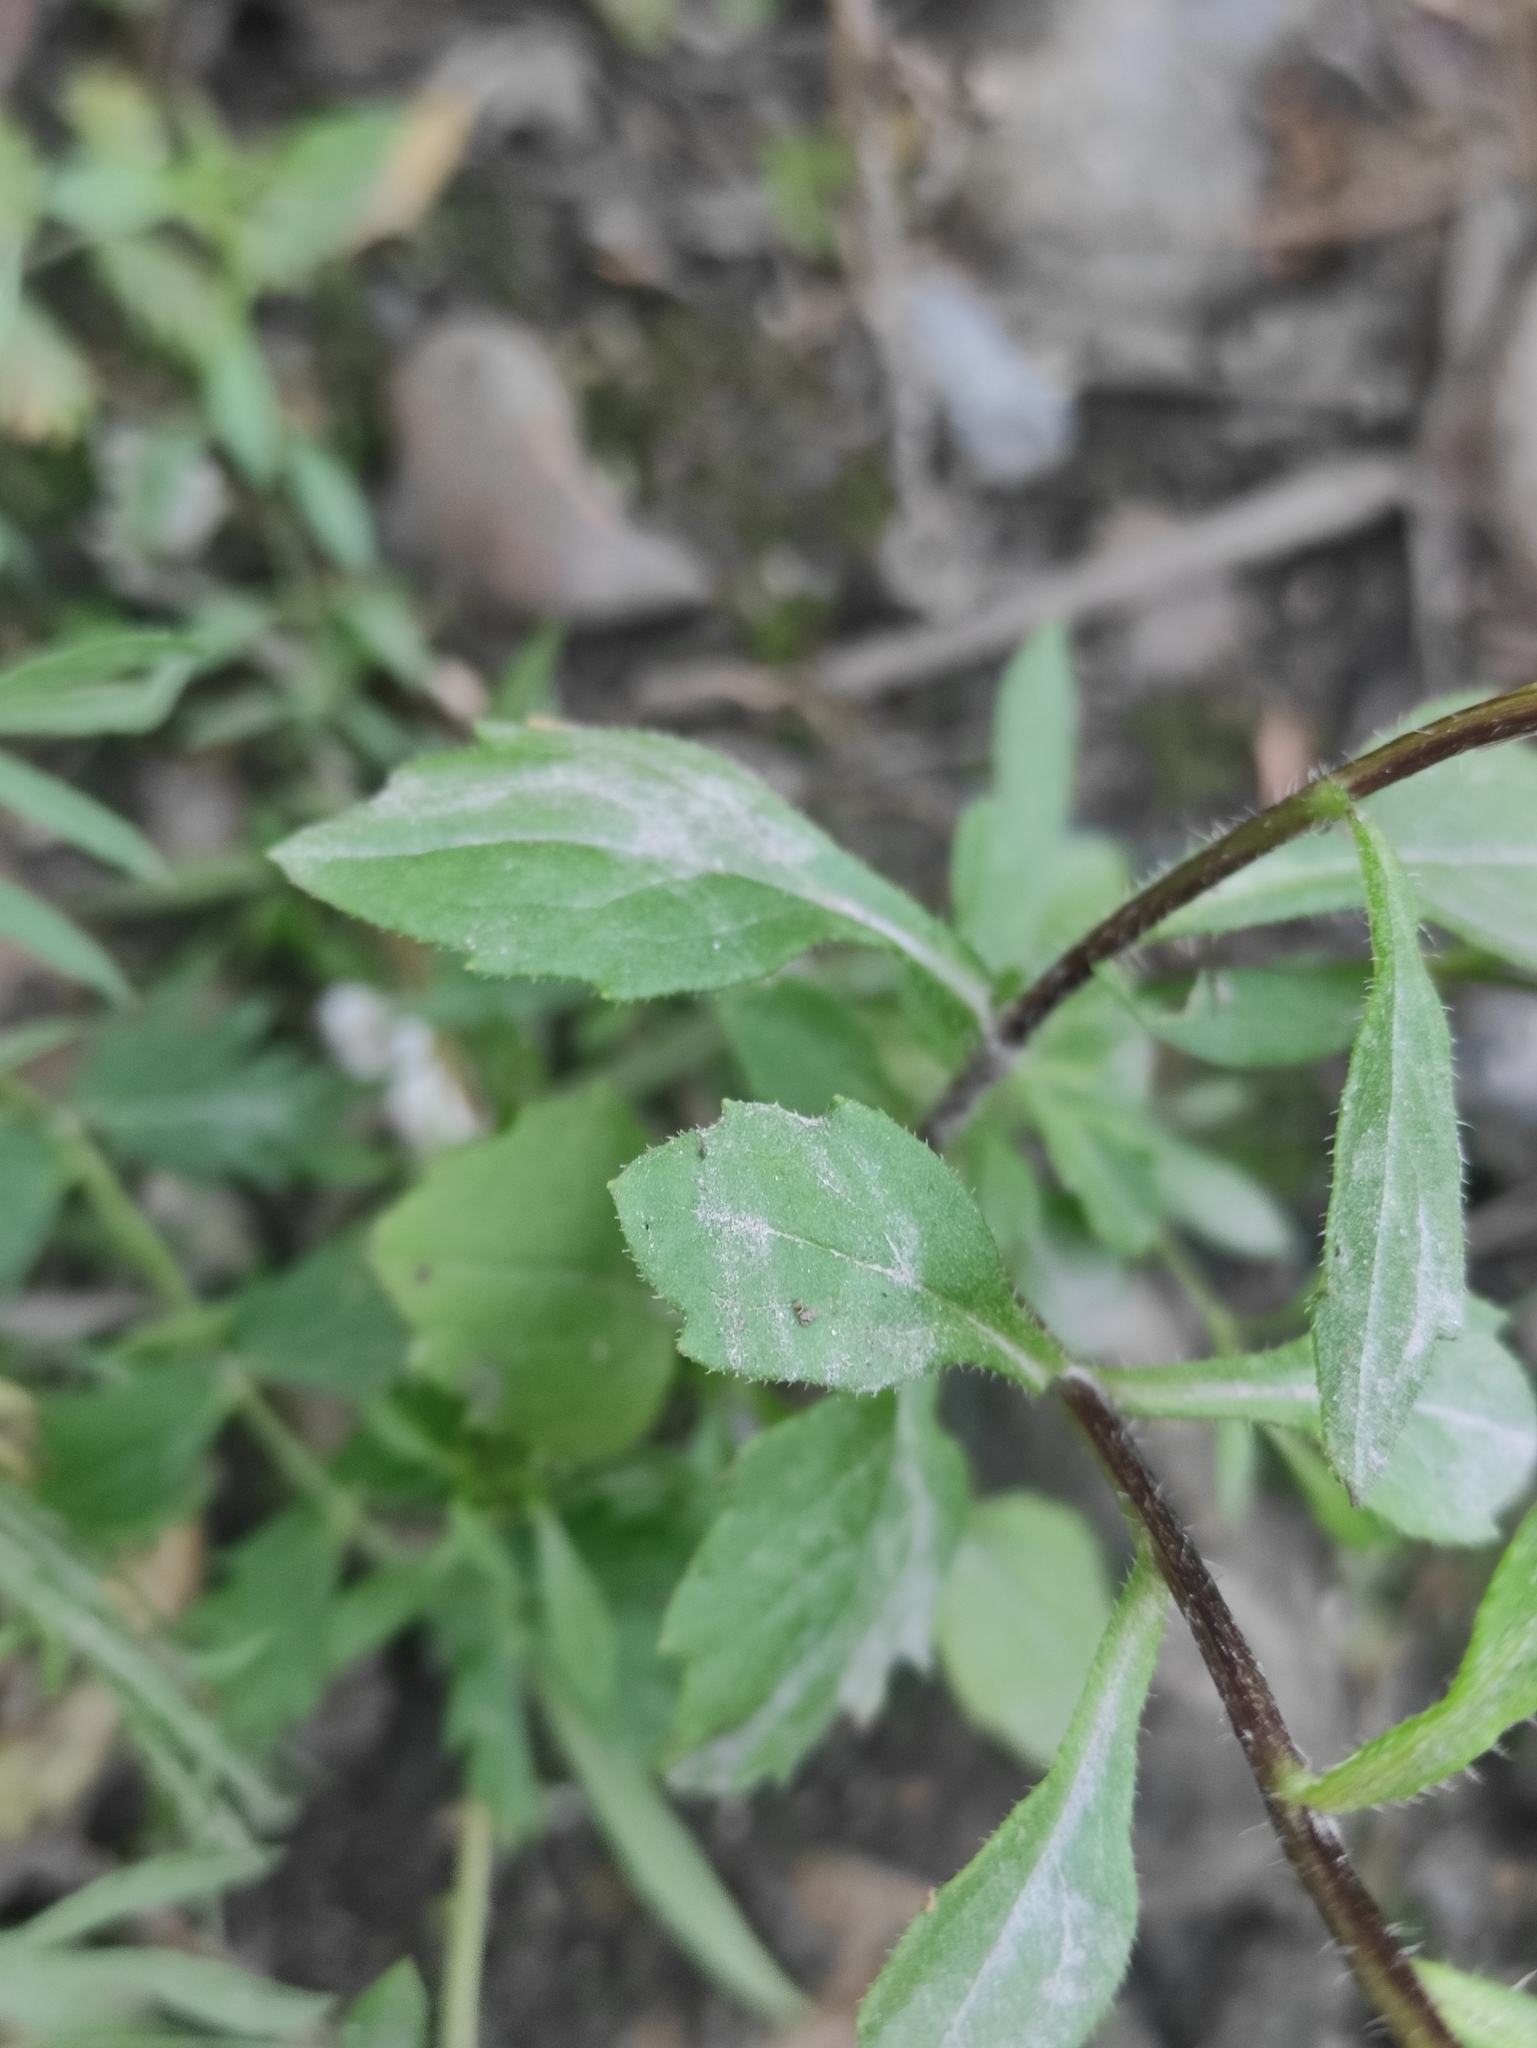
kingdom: Plantae
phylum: Tracheophyta
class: Magnoliopsida
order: Asterales
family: Asteraceae
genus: Callistephus
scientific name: Callistephus chinensis
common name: China aster
